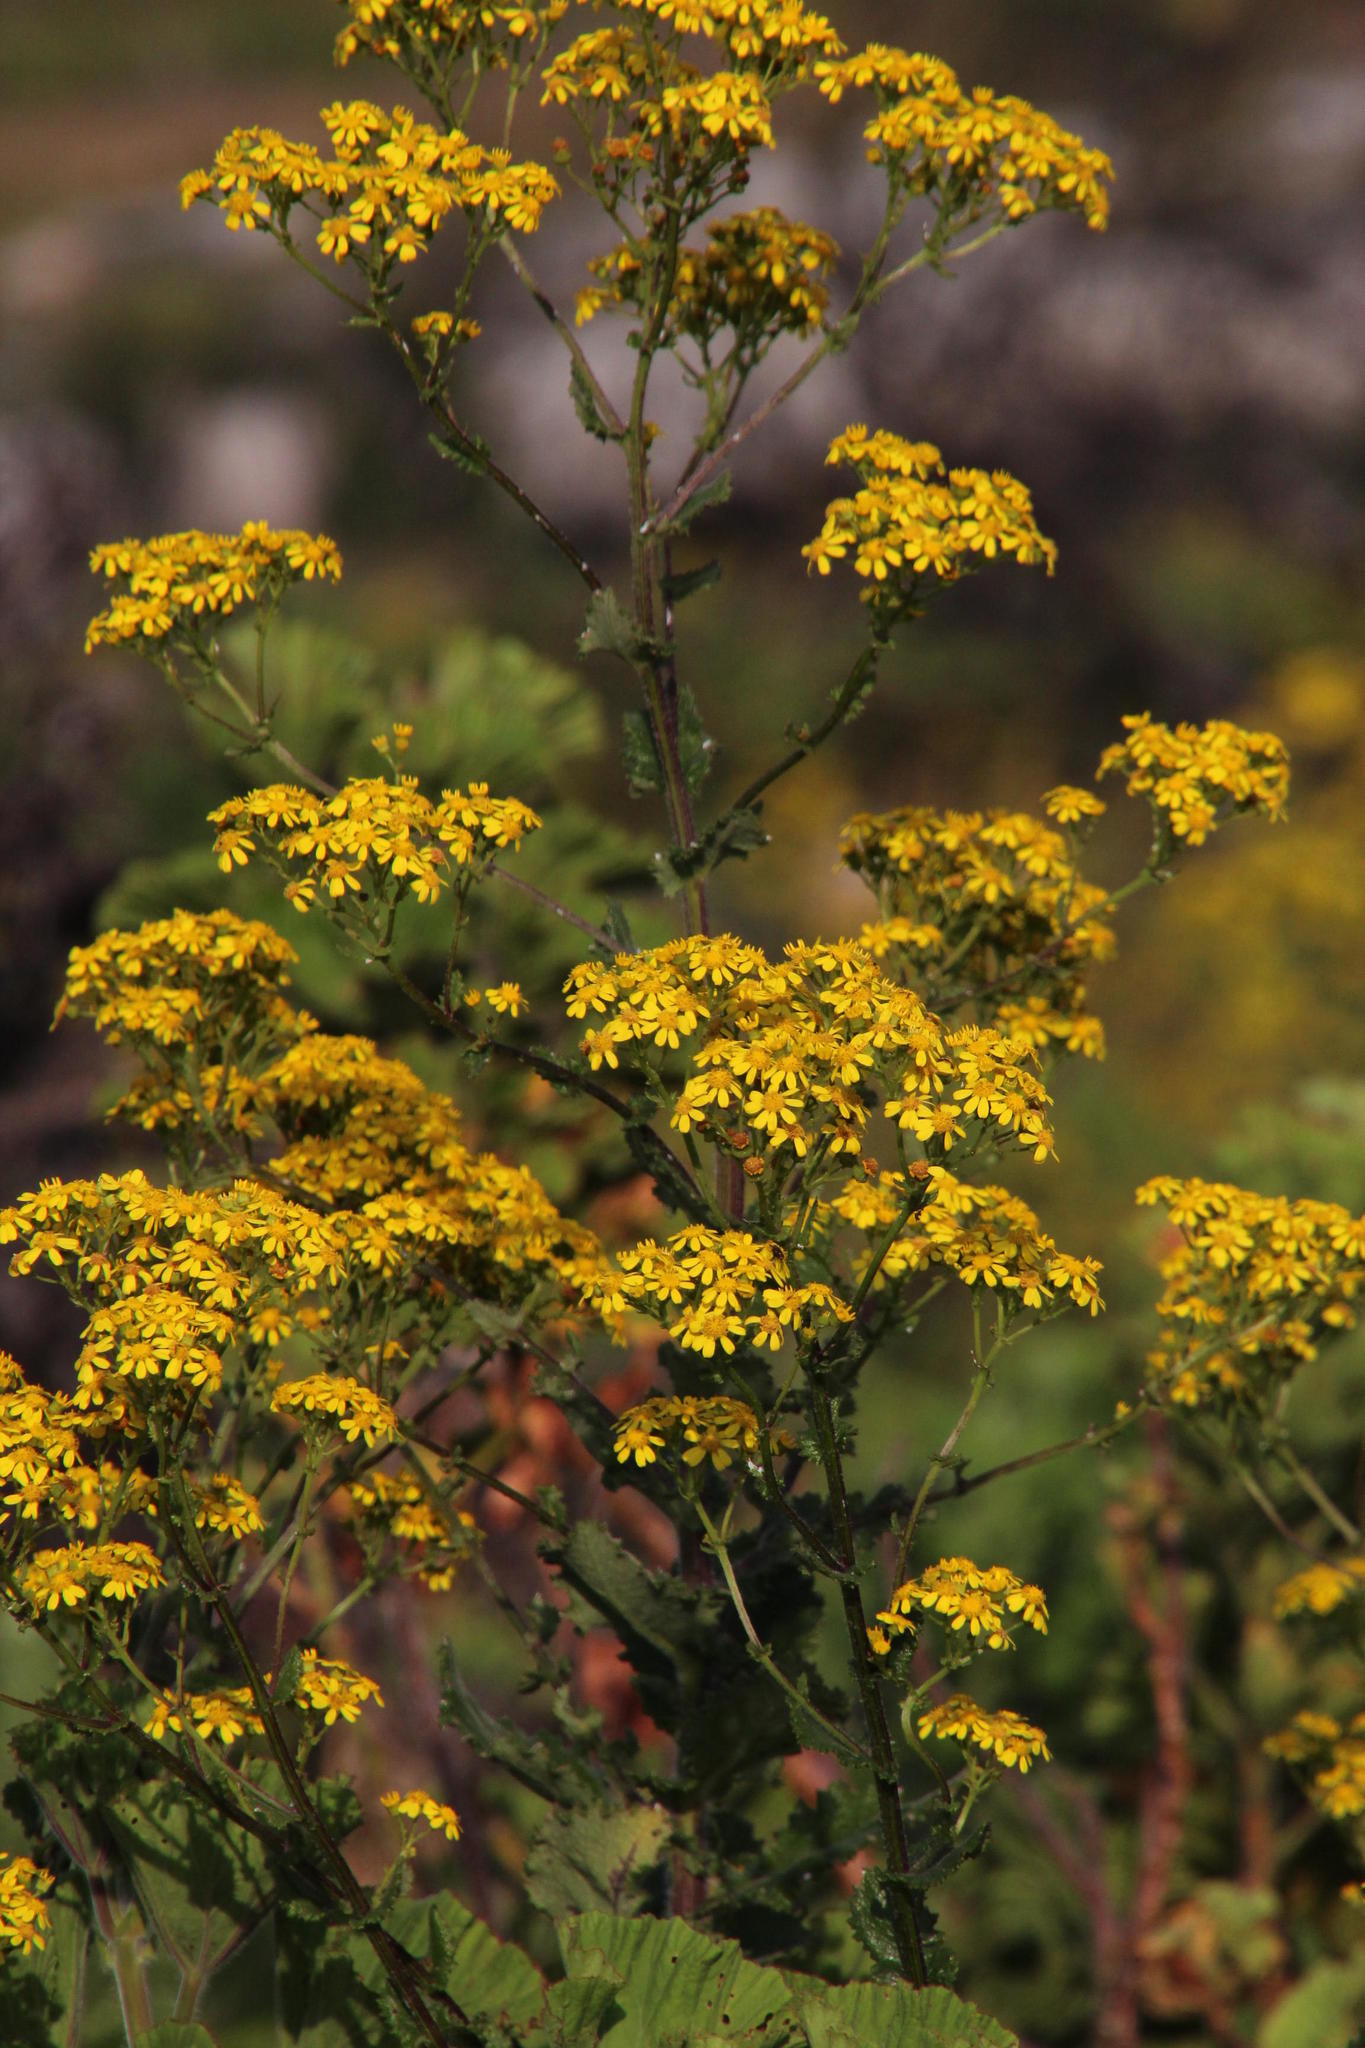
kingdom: Plantae
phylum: Tracheophyta
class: Magnoliopsida
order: Asterales
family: Asteraceae
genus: Senecio
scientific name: Senecio rigidus
